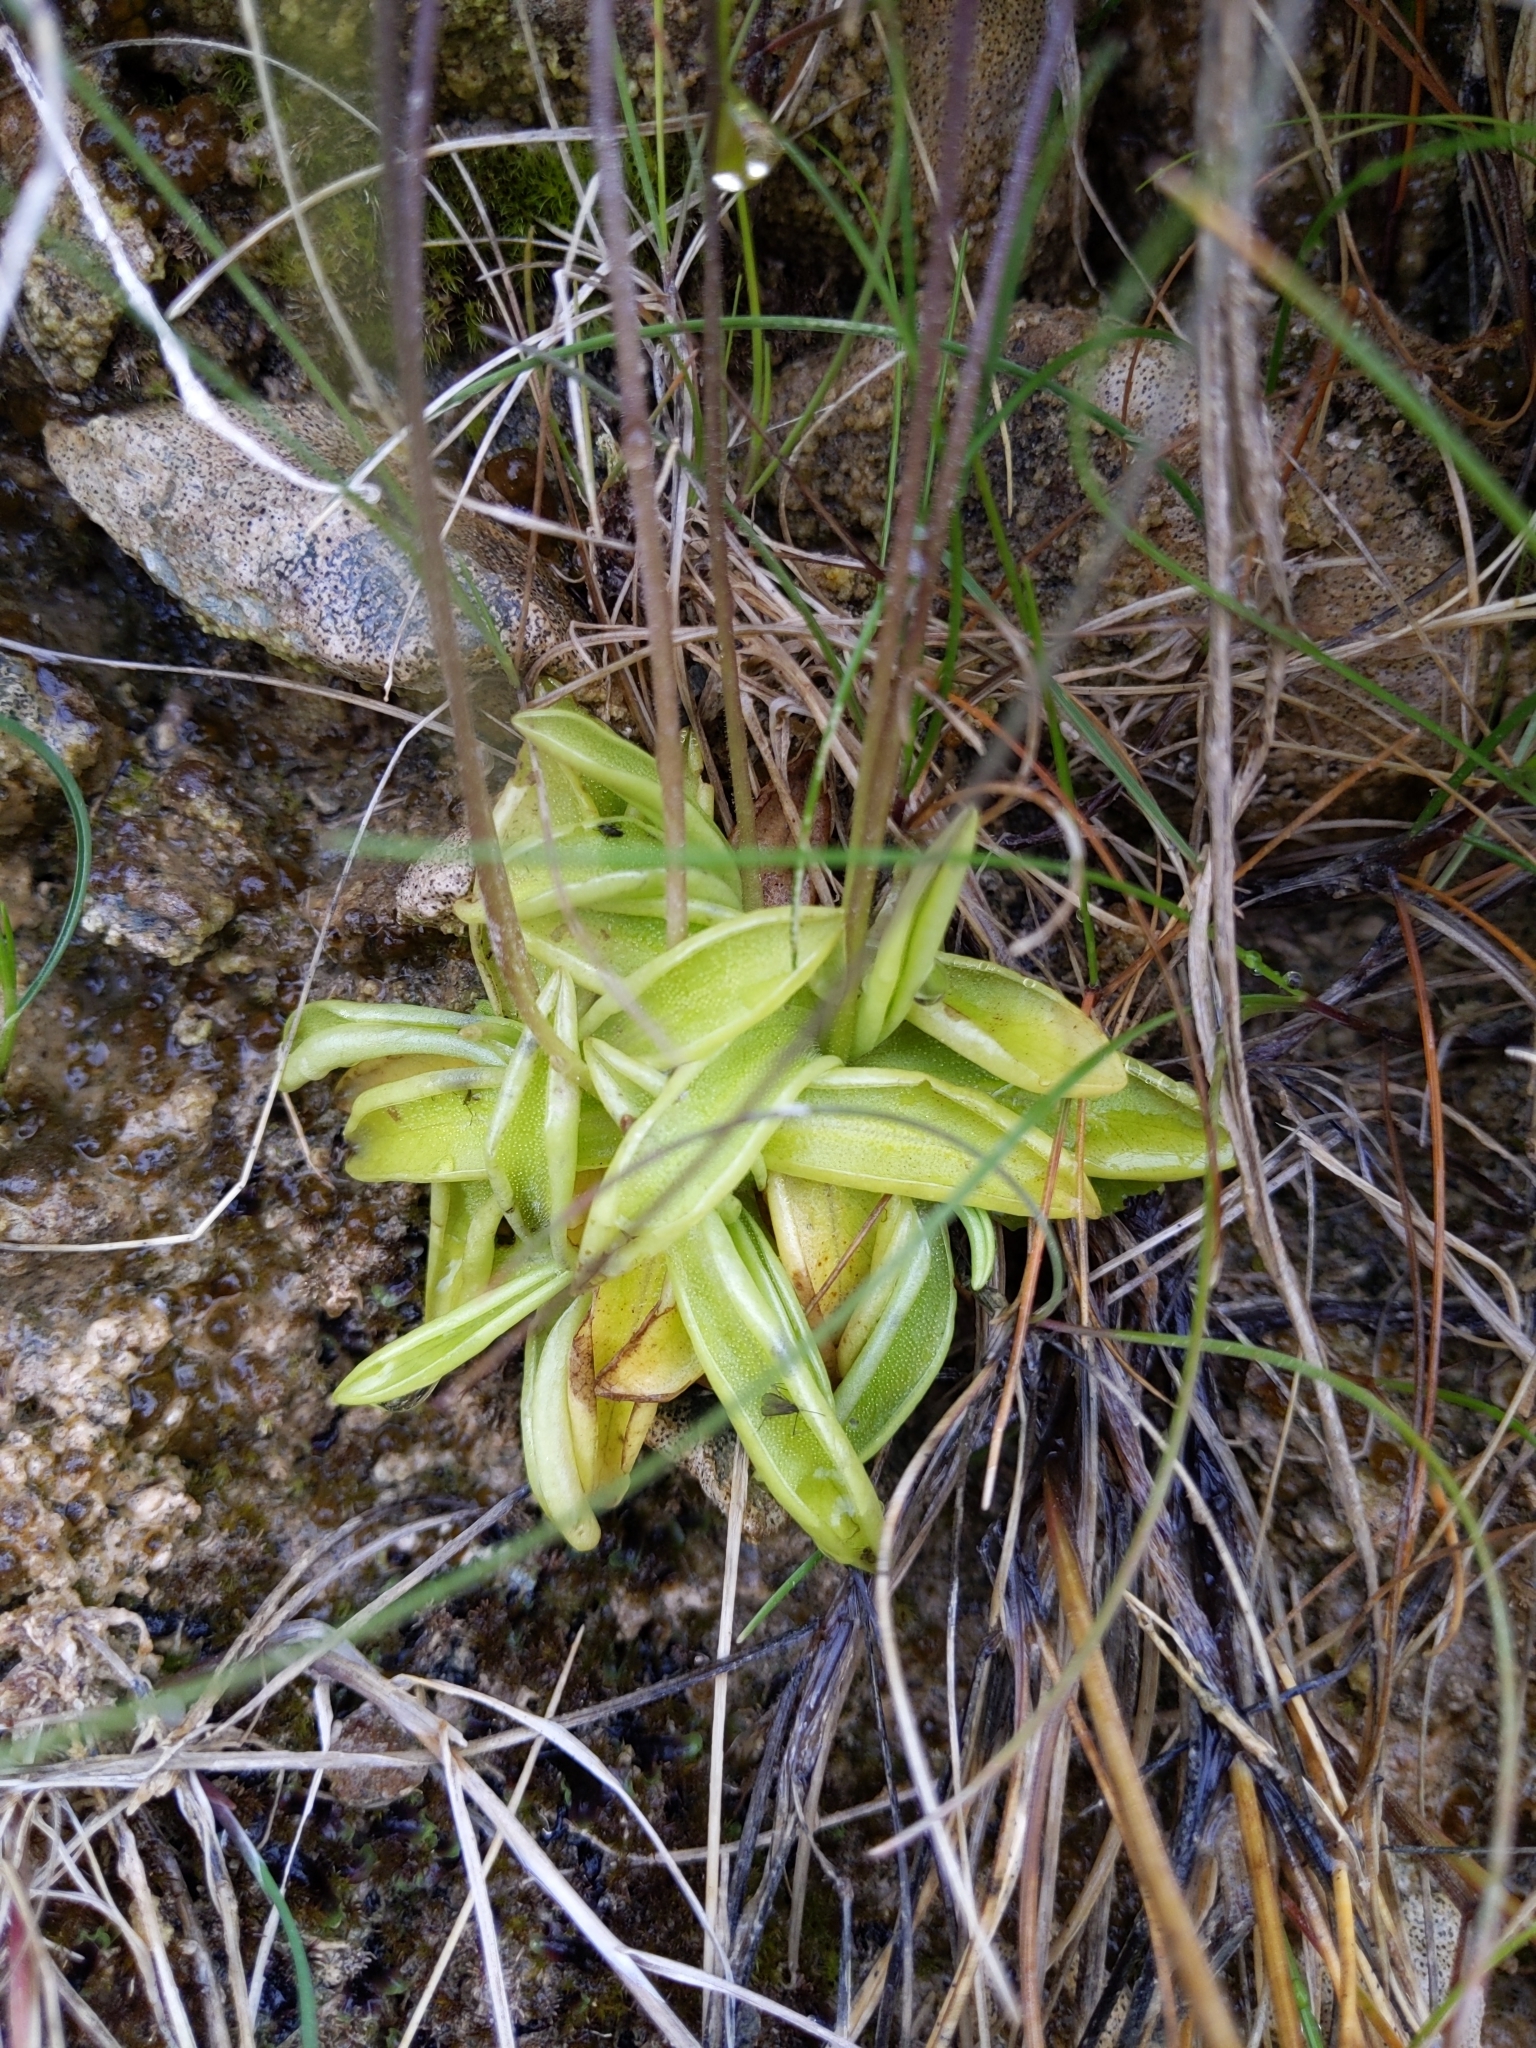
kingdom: Plantae
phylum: Tracheophyta
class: Magnoliopsida
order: Lamiales
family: Lentibulariaceae
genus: Pinguicula
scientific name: Pinguicula vulgaris
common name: Common butterwort
